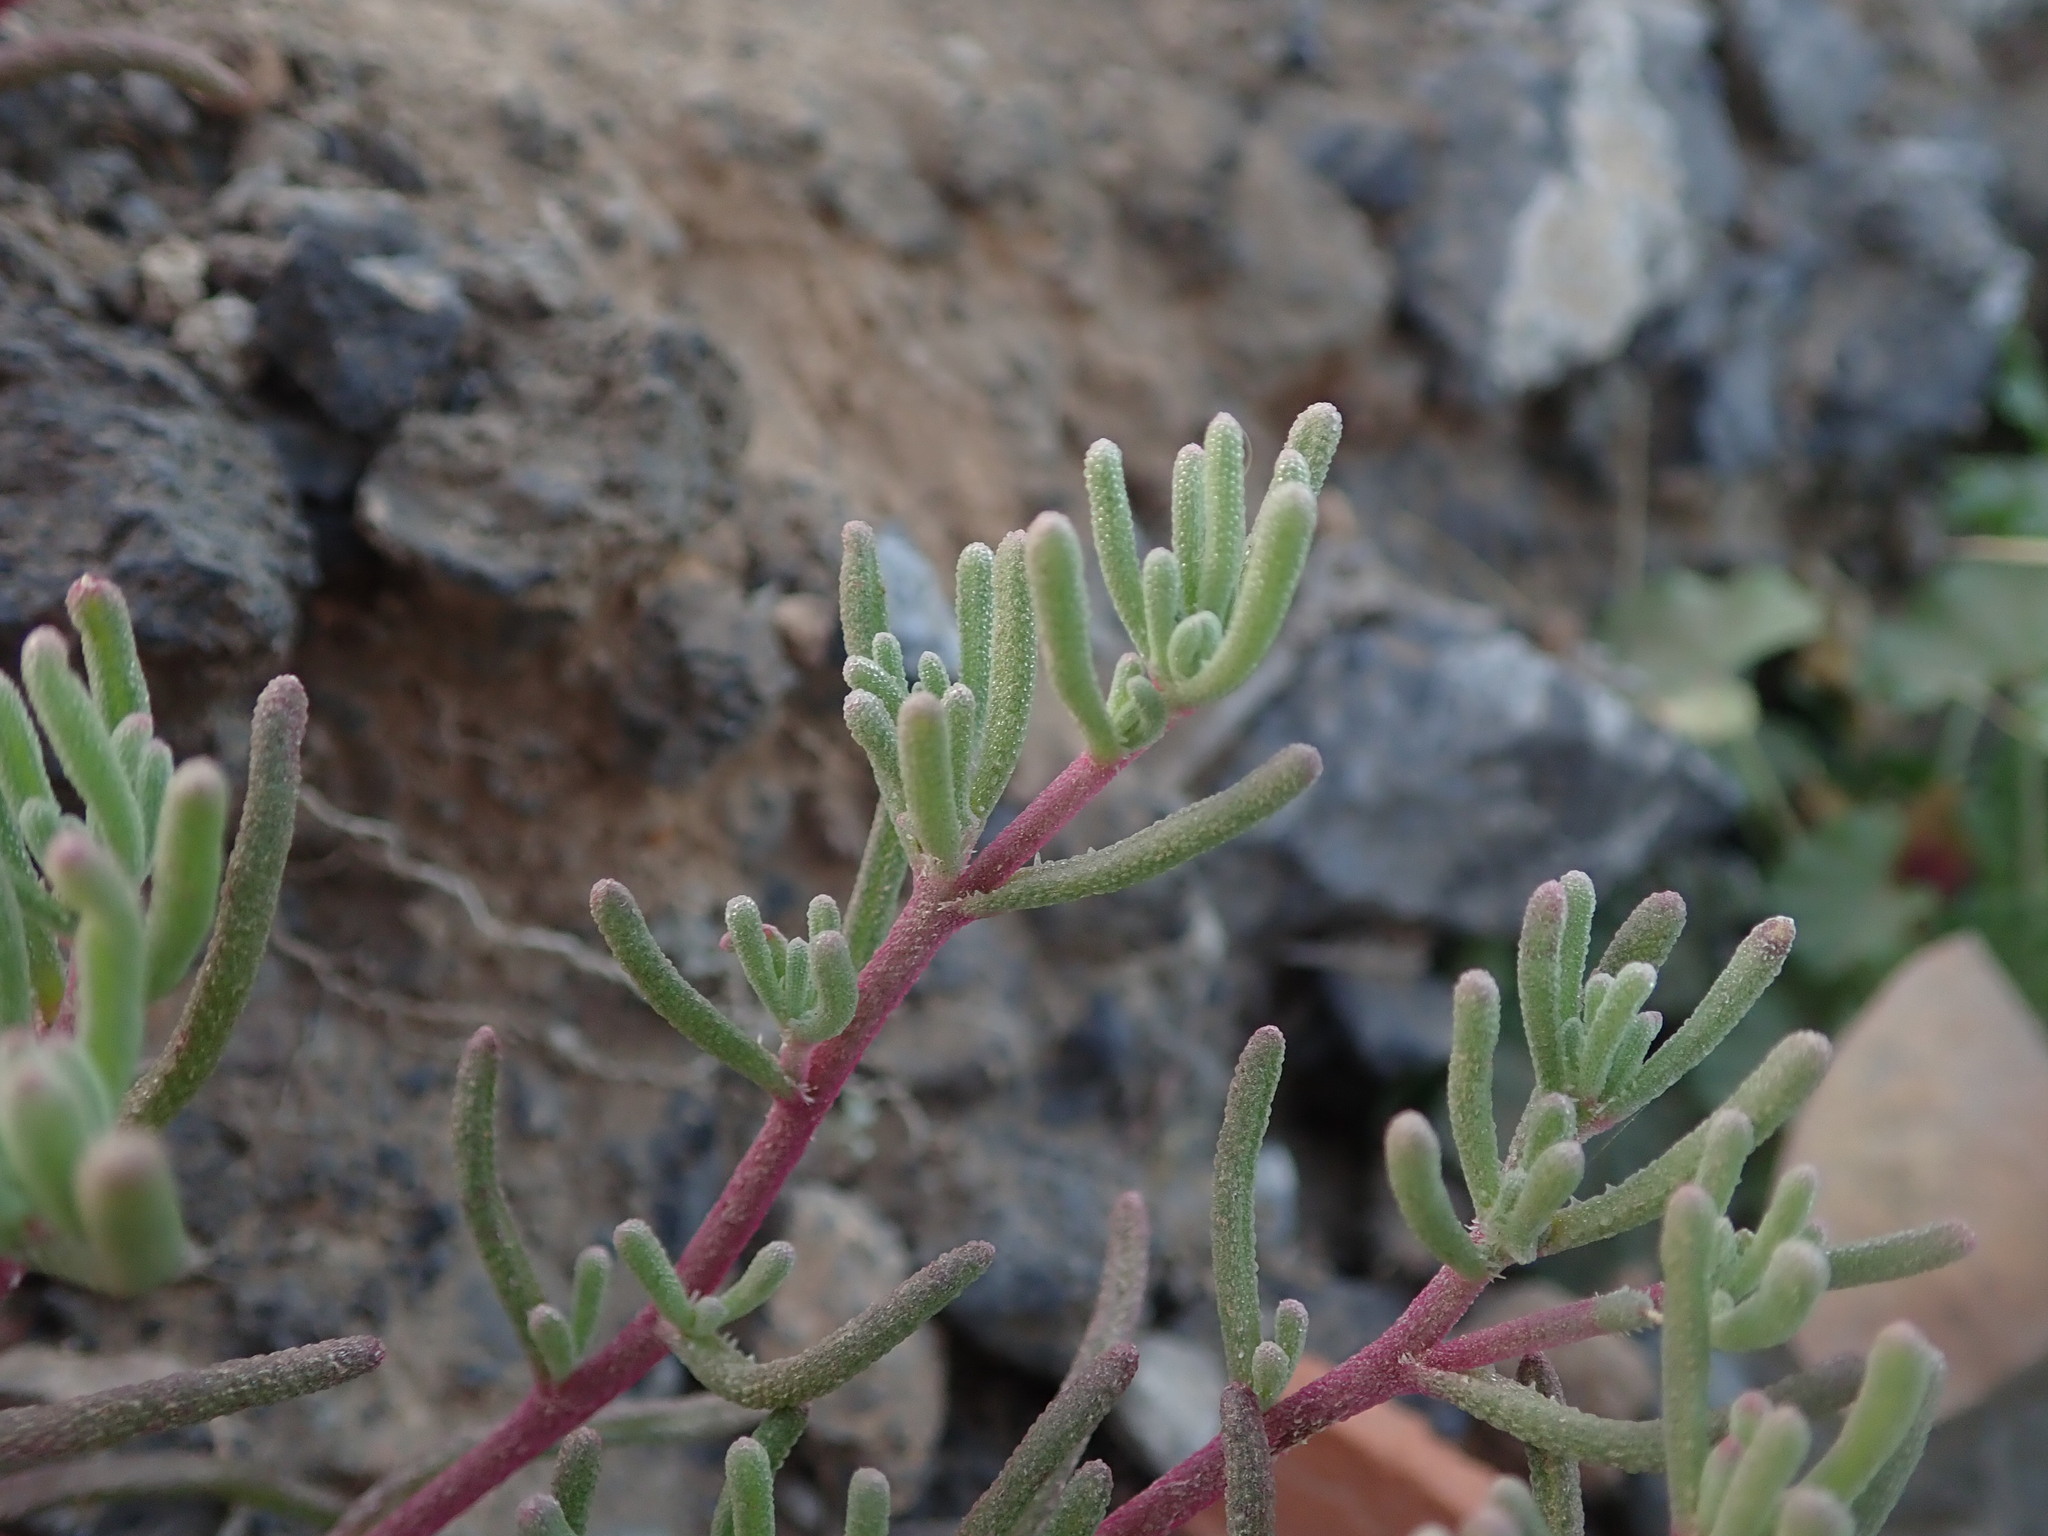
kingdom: Plantae
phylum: Tracheophyta
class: Magnoliopsida
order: Caryophyllales
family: Aizoaceae
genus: Mesembryanthemum
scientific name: Mesembryanthemum nodiflorum
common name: Slenderleaf iceplant
